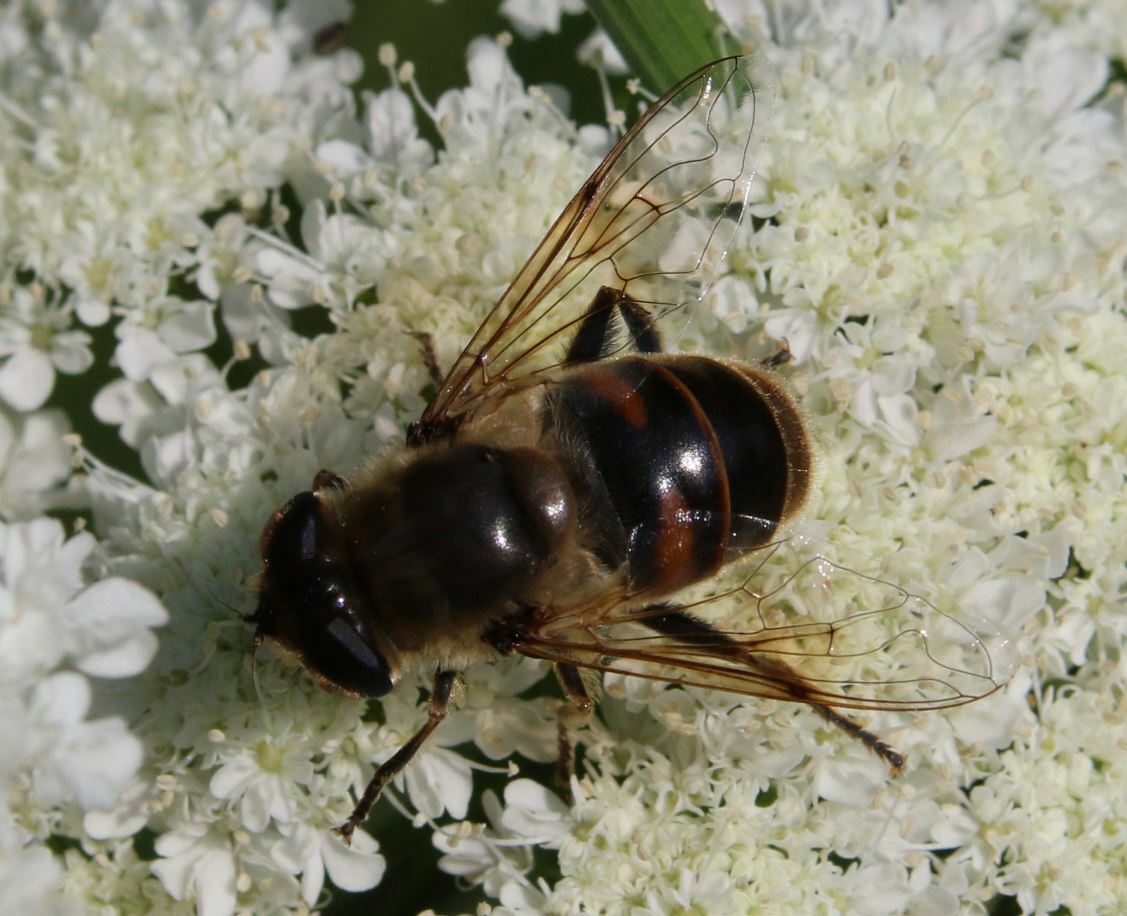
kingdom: Animalia
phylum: Arthropoda
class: Insecta
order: Diptera
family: Syrphidae
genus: Eristalis
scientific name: Eristalis tenax
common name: Drone fly
